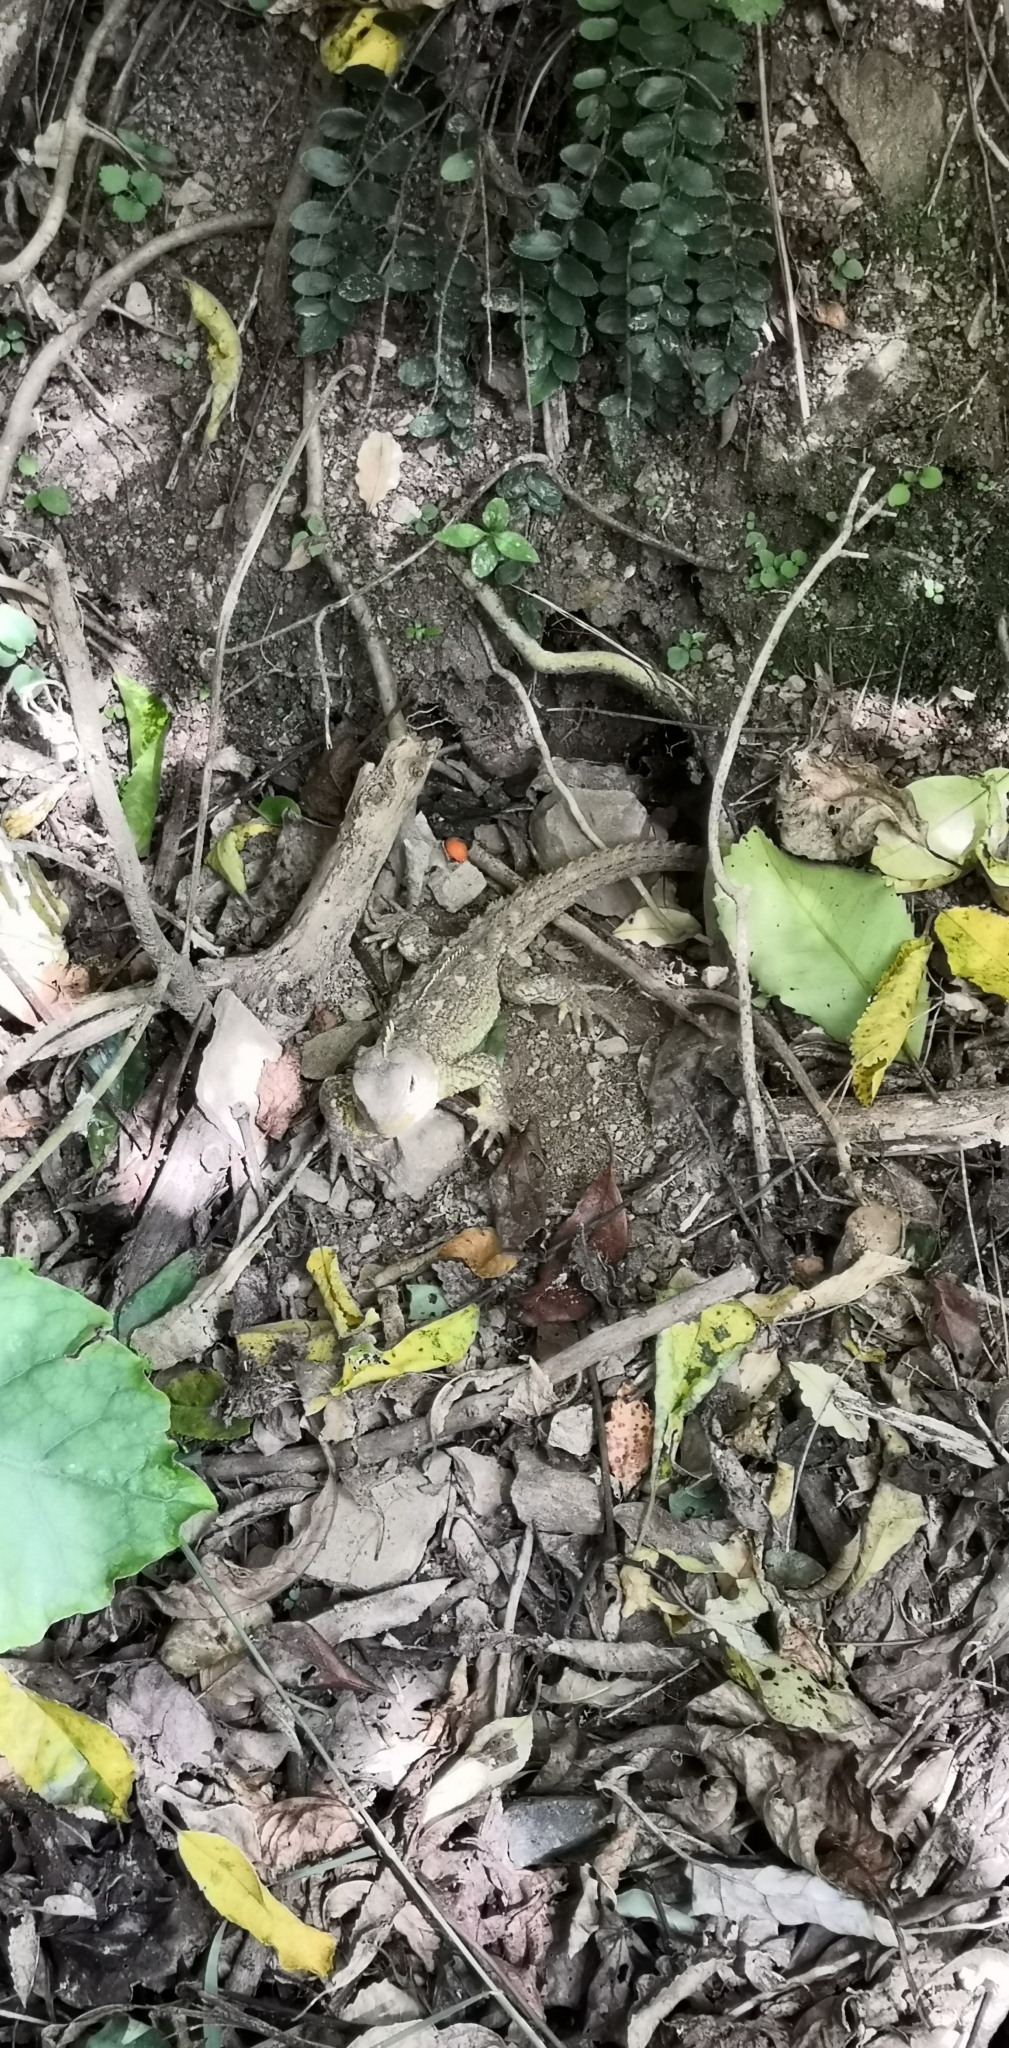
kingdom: Animalia
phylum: Chordata
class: Sphenodontia
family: Sphenodontidae
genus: Sphenodon
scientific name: Sphenodon punctatus
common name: Tuatara
